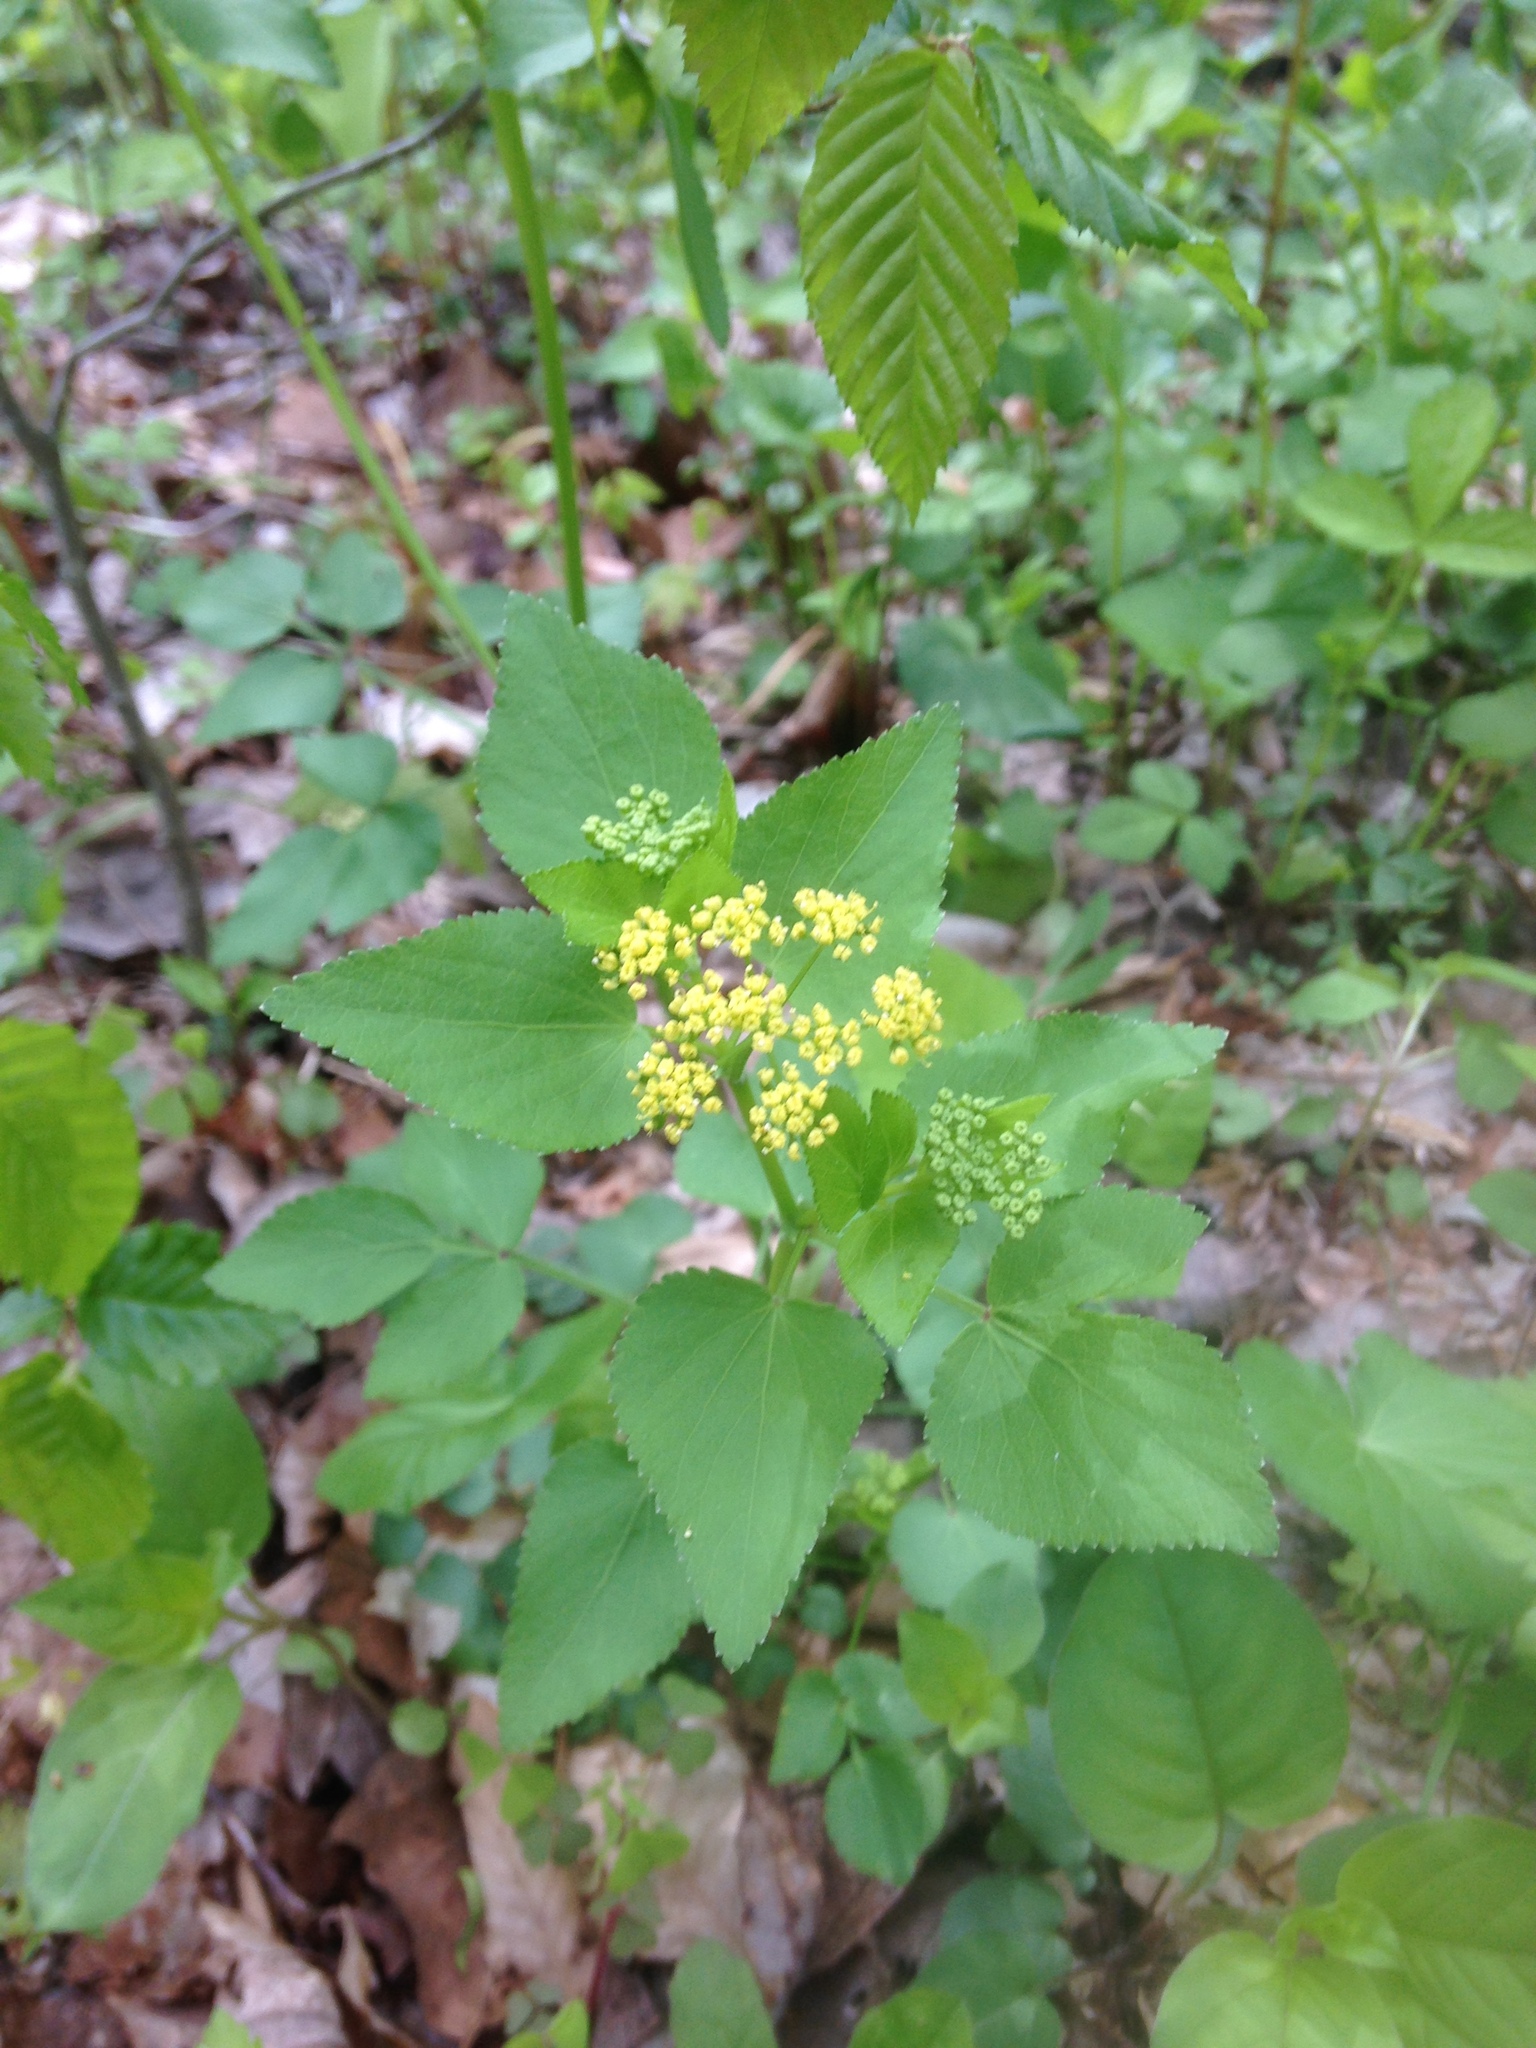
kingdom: Plantae
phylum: Tracheophyta
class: Magnoliopsida
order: Apiales
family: Apiaceae
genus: Zizia
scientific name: Zizia aptera
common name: Heart-leaved alexanders
